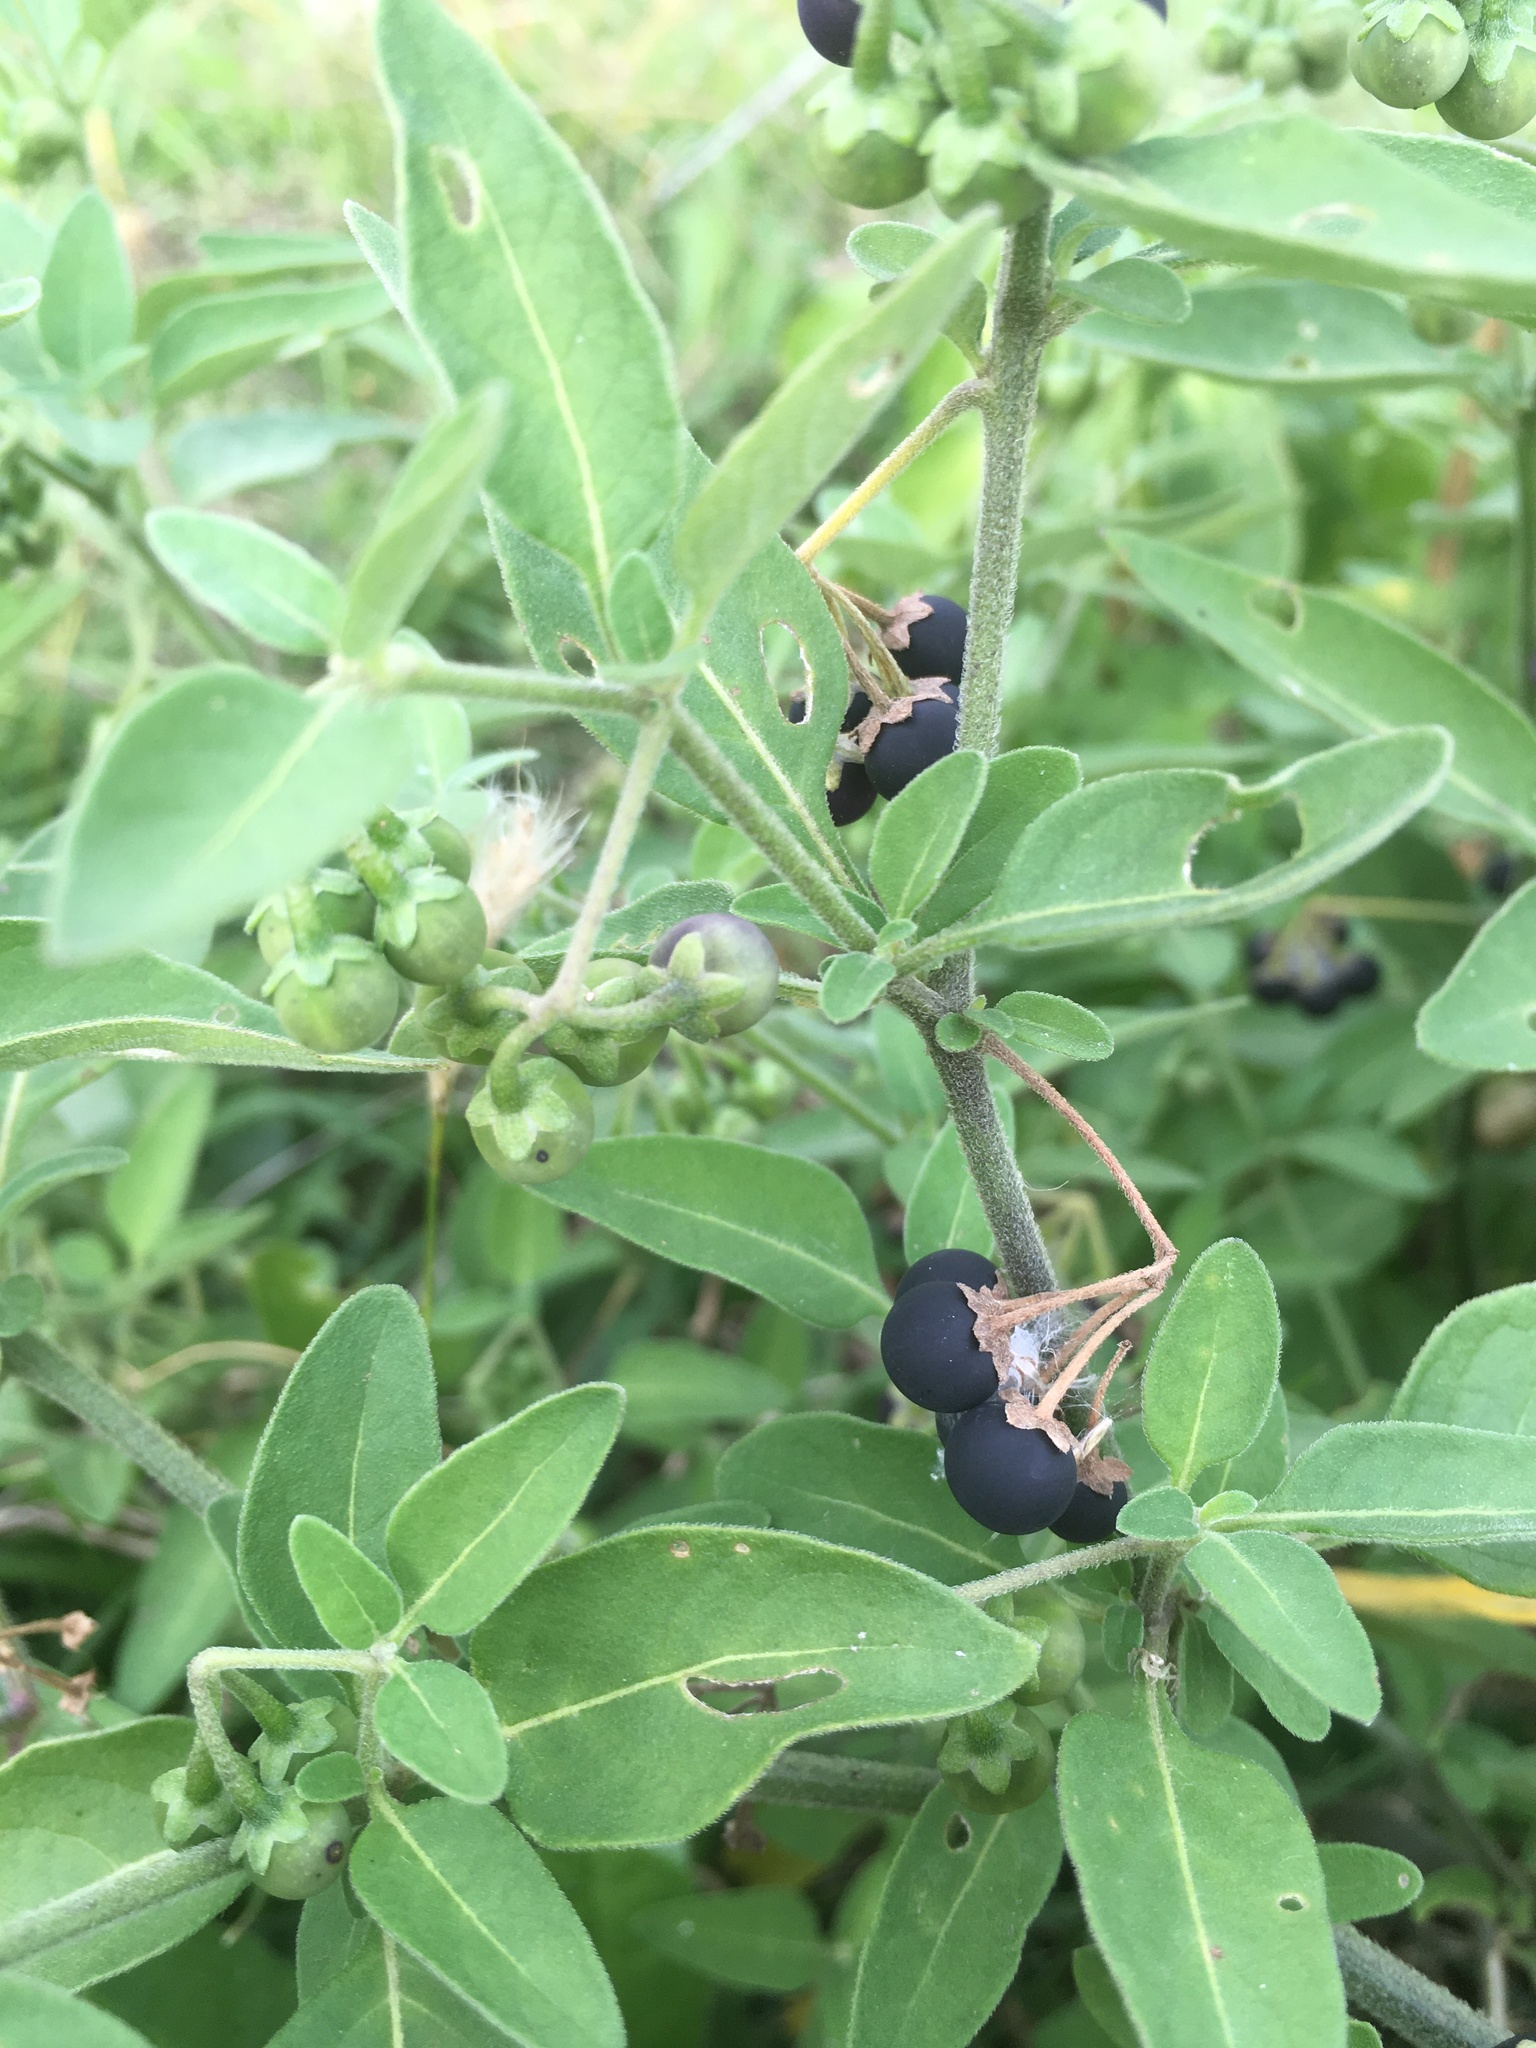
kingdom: Plantae
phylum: Tracheophyta
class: Magnoliopsida
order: Solanales
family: Solanaceae
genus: Solanum
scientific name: Solanum chenopodioides
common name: Tall nightshade
